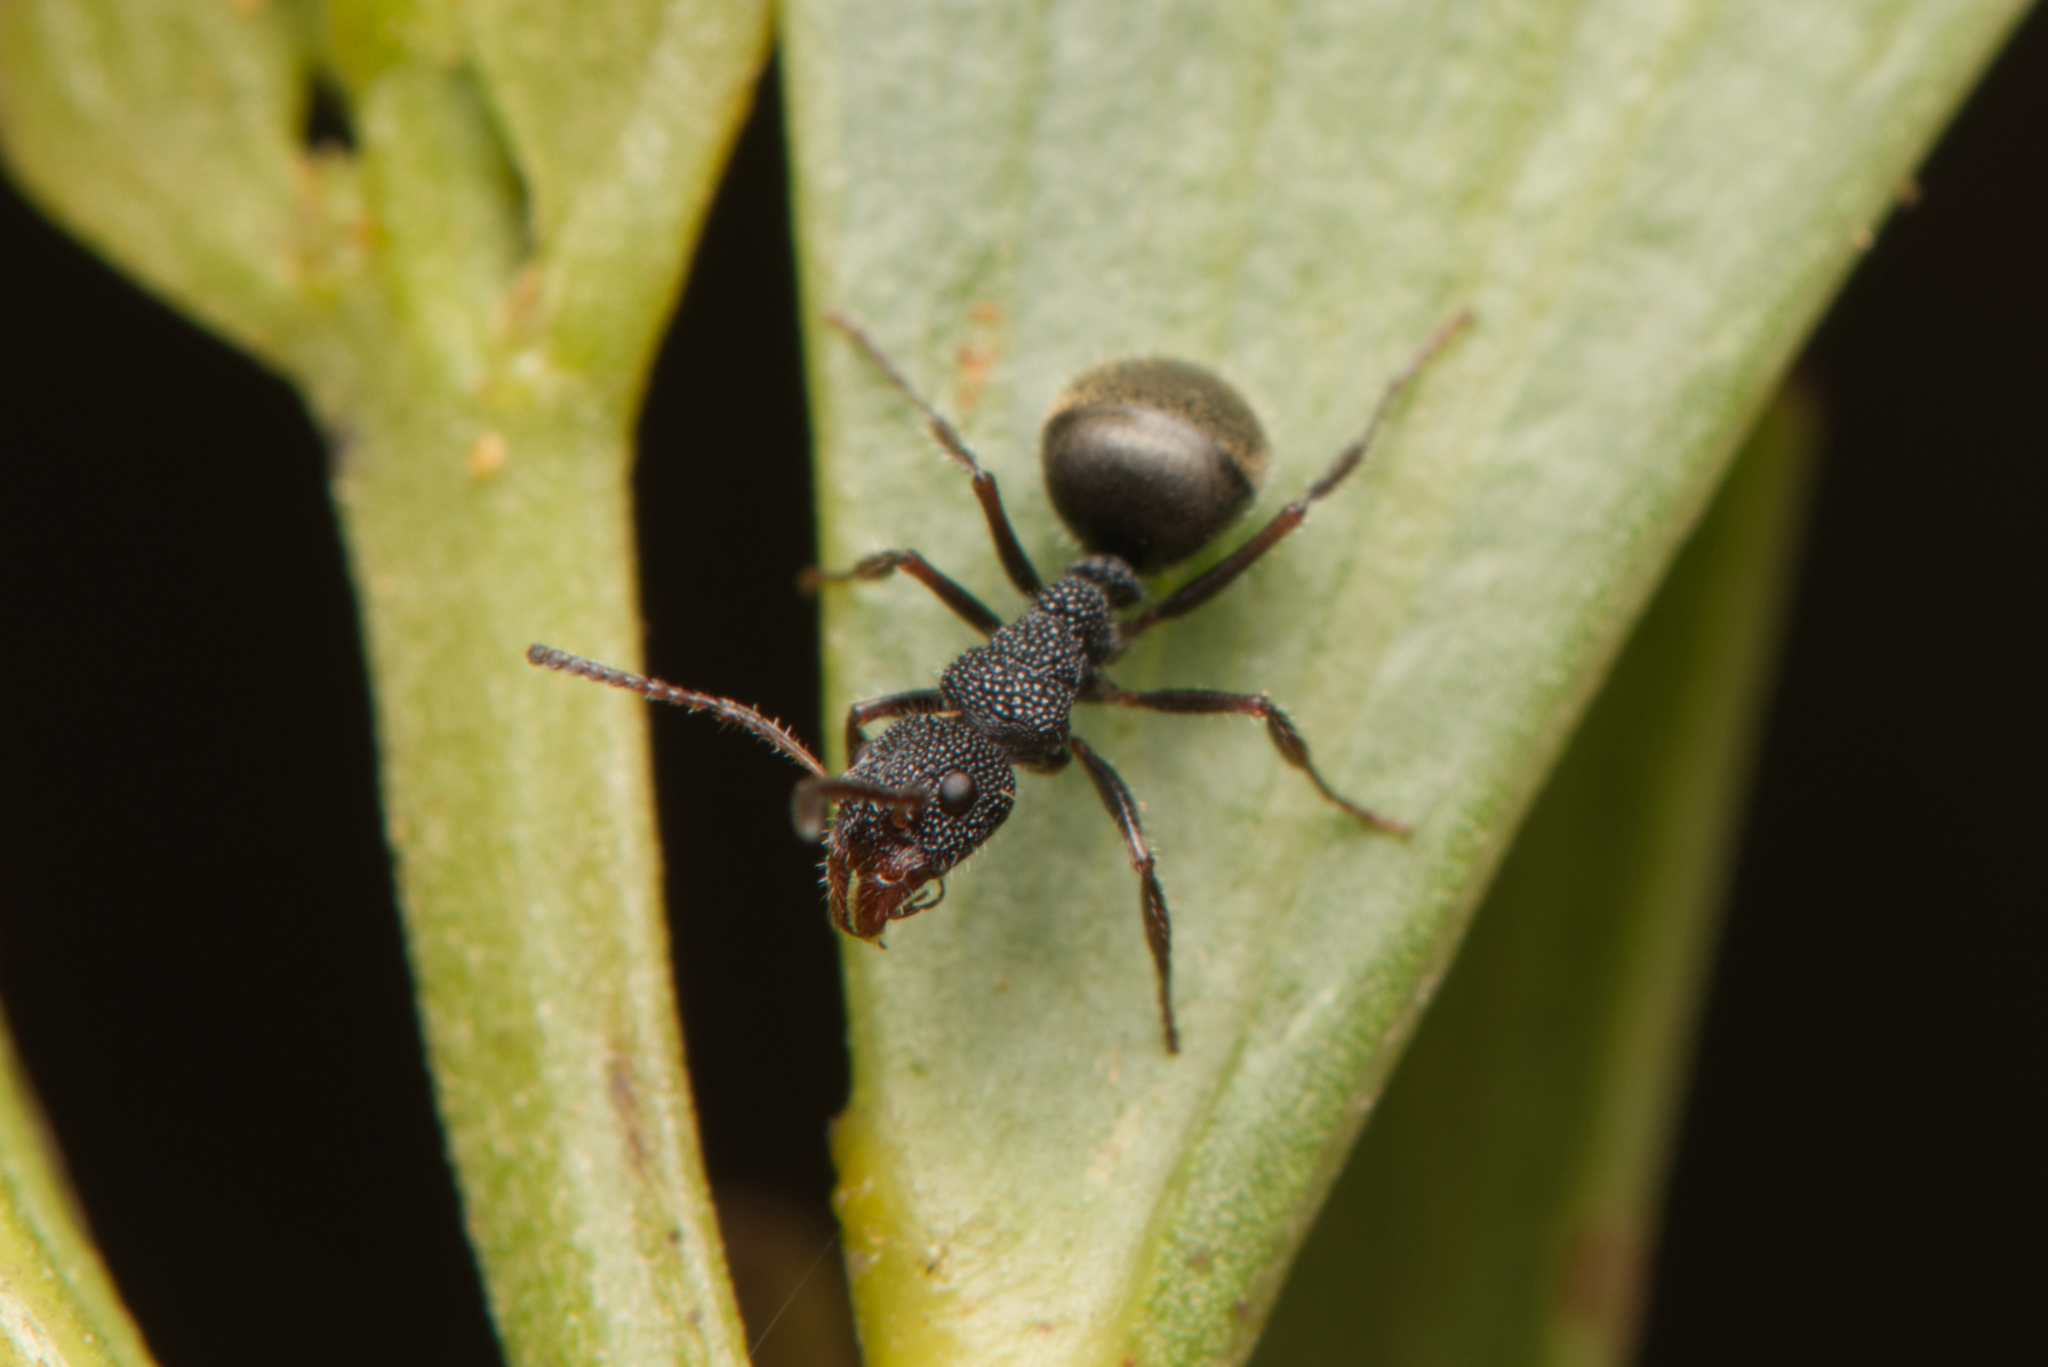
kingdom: Animalia
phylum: Arthropoda
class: Insecta
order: Hymenoptera
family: Formicidae
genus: Dolichoderus
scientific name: Dolichoderus scrobiculatus
